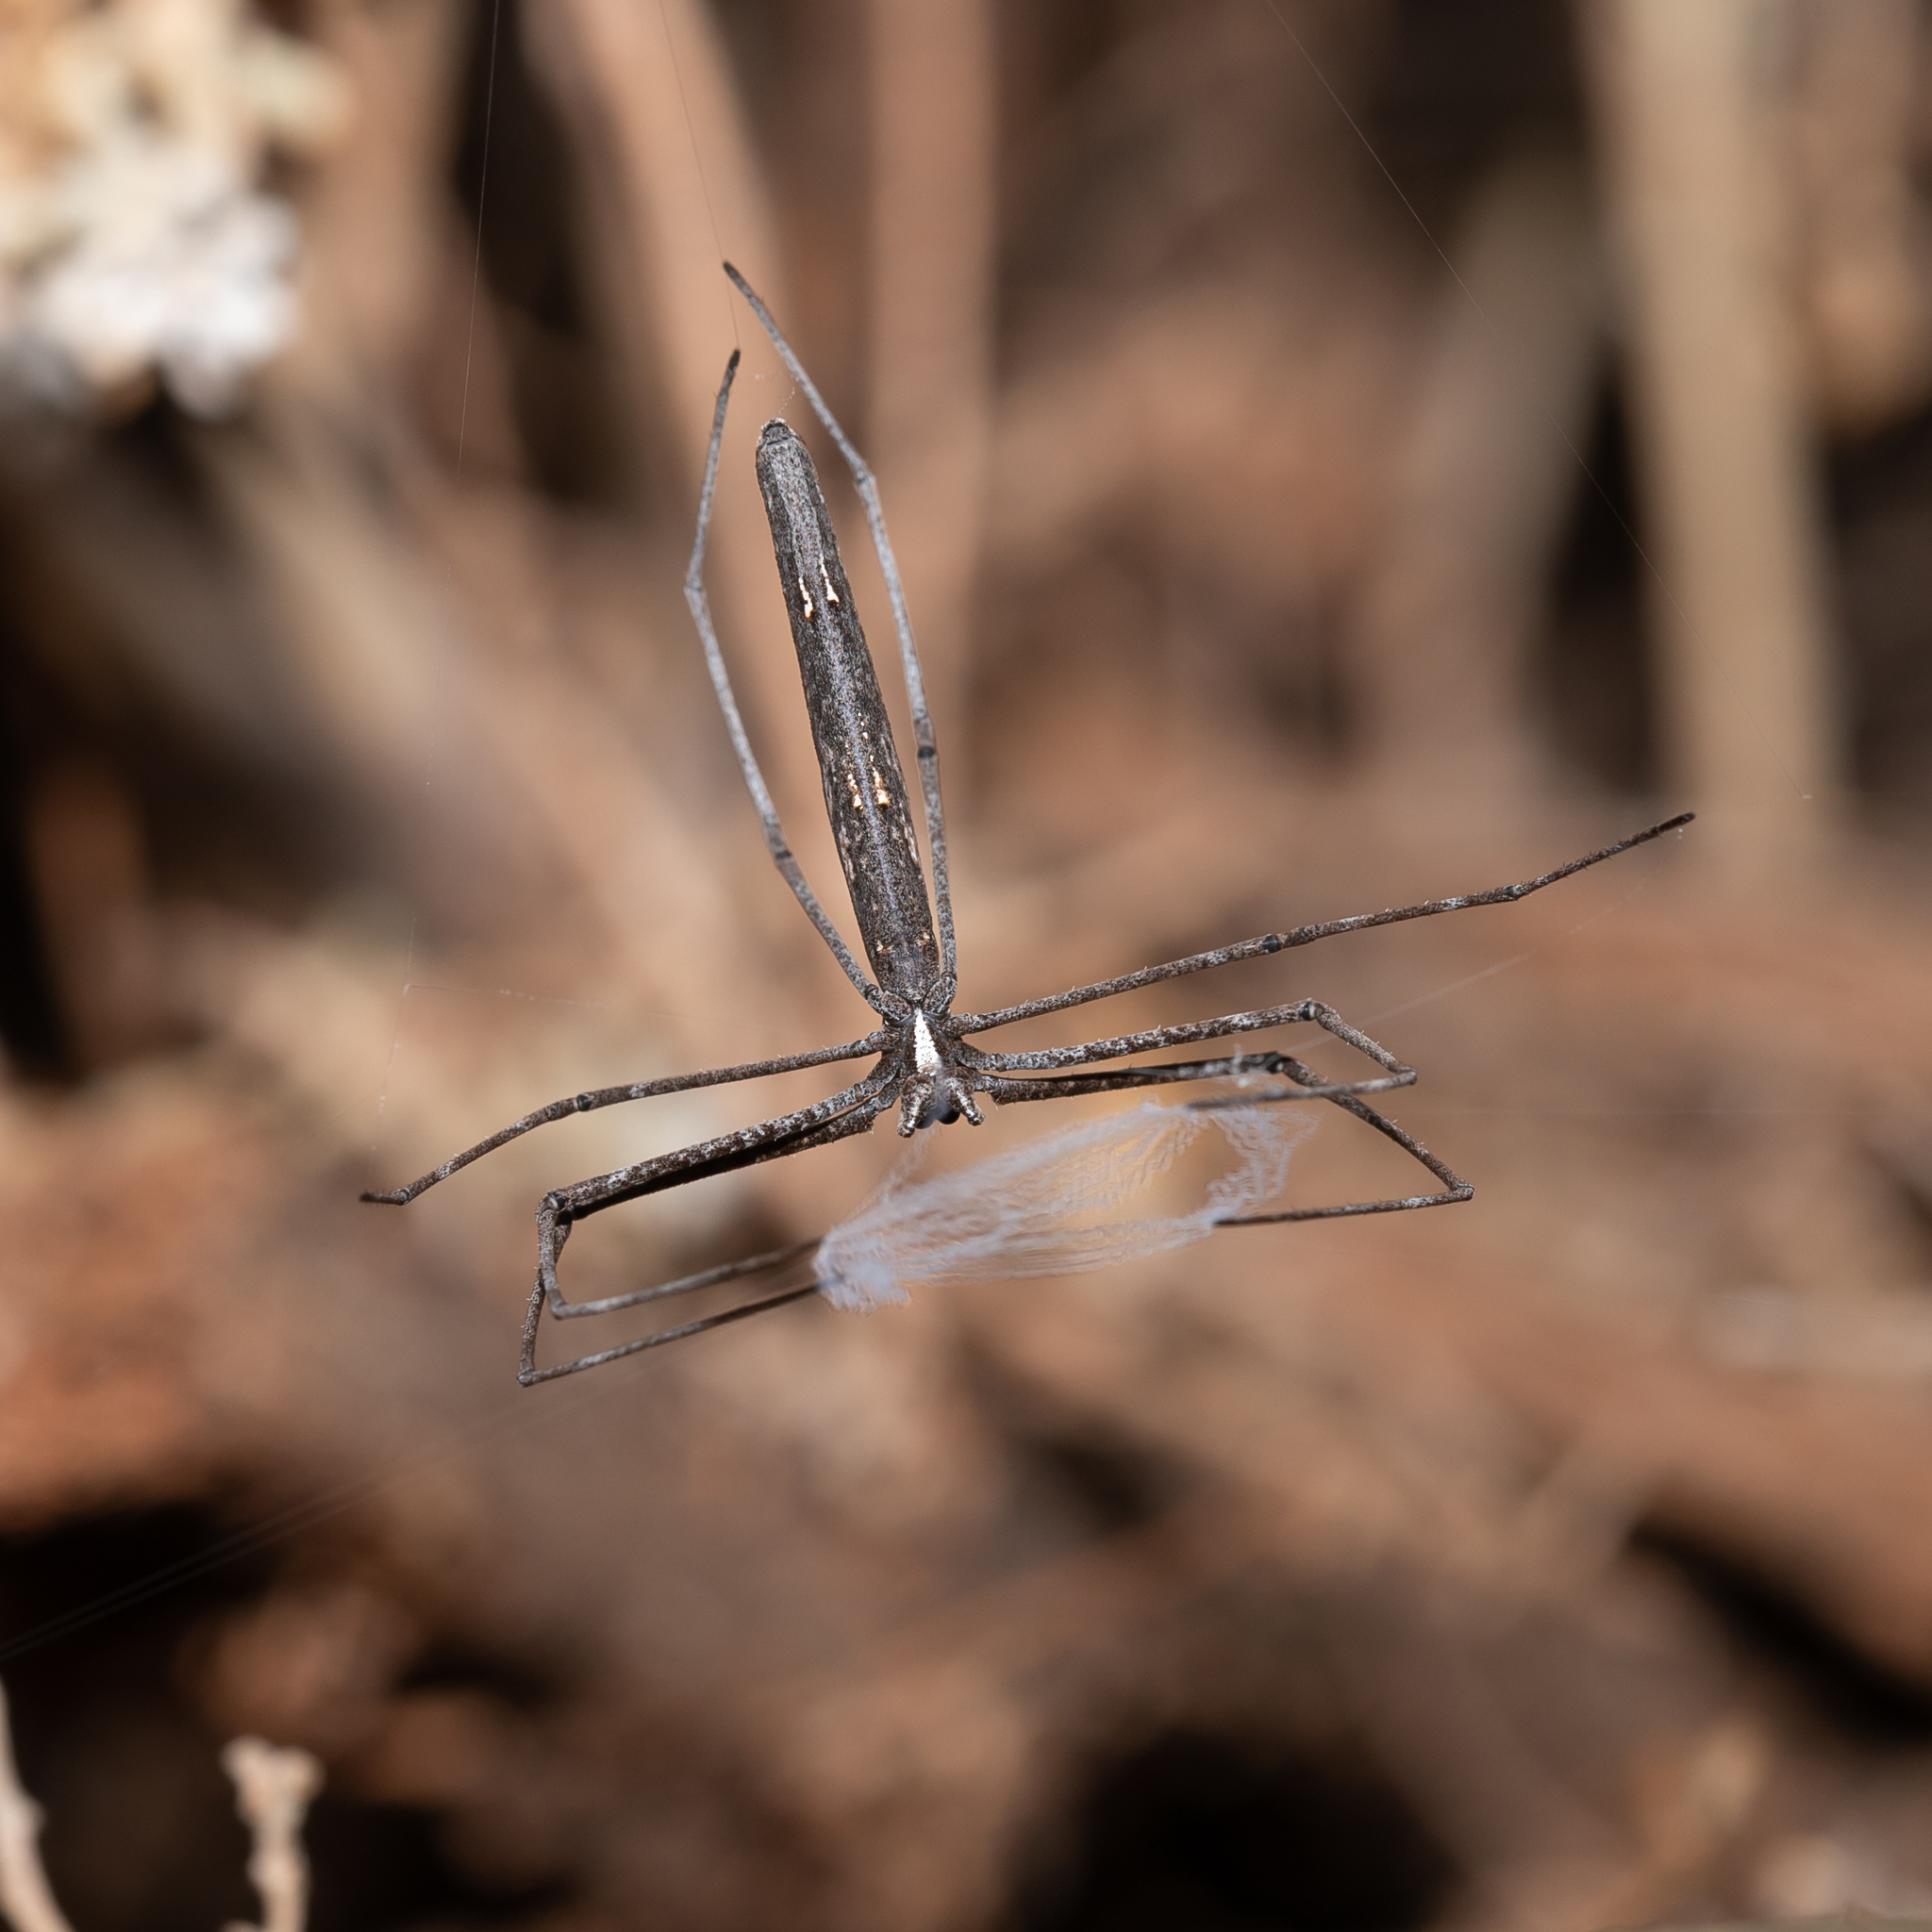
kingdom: Animalia
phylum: Arthropoda
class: Arachnida
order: Araneae
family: Deinopidae
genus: Deinopis
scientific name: Deinopis subrufa
